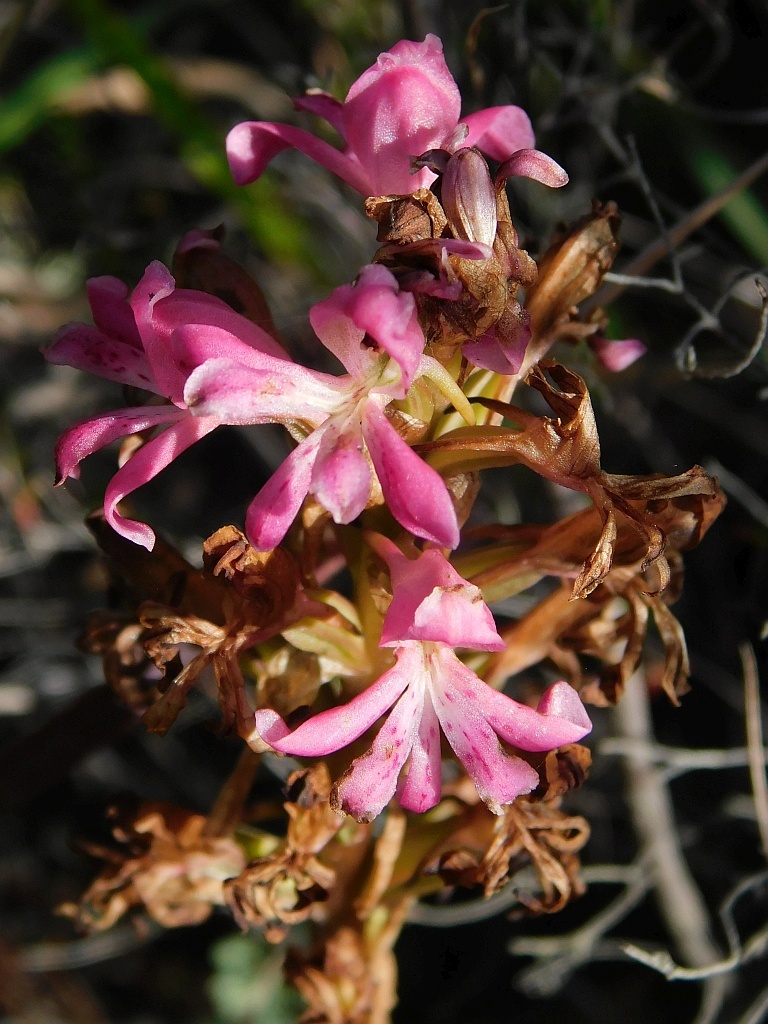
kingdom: Plantae
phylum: Tracheophyta
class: Liliopsida
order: Asparagales
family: Orchidaceae
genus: Satyrium
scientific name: Satyrium erectum
